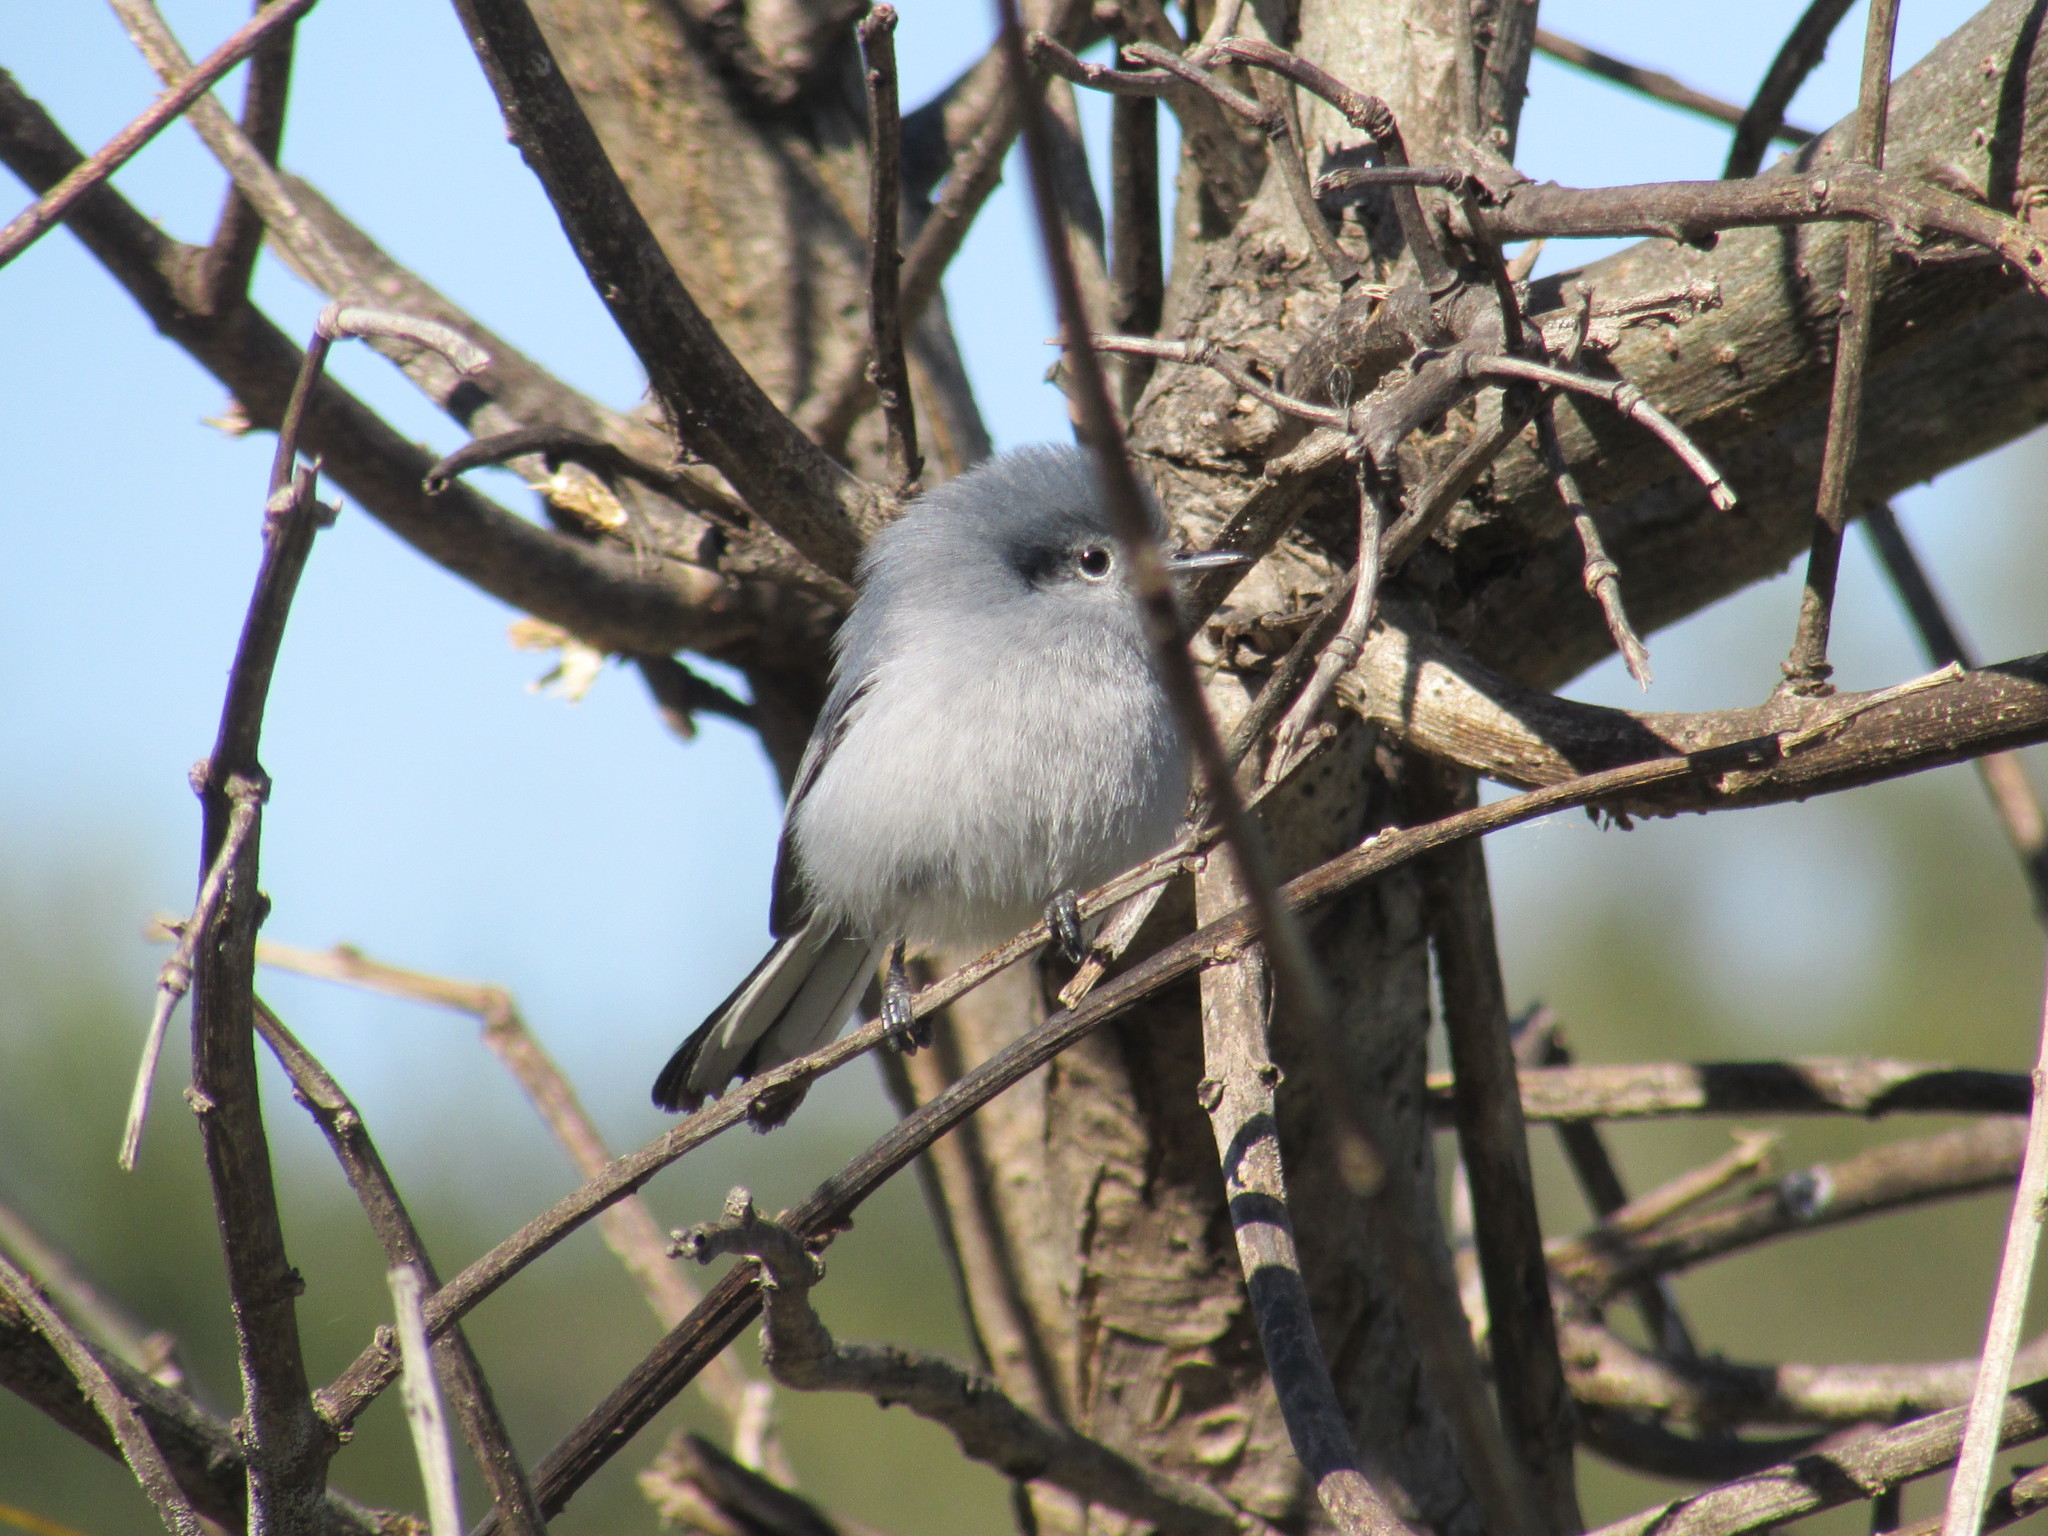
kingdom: Animalia
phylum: Chordata
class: Aves
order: Passeriformes
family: Polioptilidae
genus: Polioptila
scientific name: Polioptila dumicola
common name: Masked gnatcatcher
